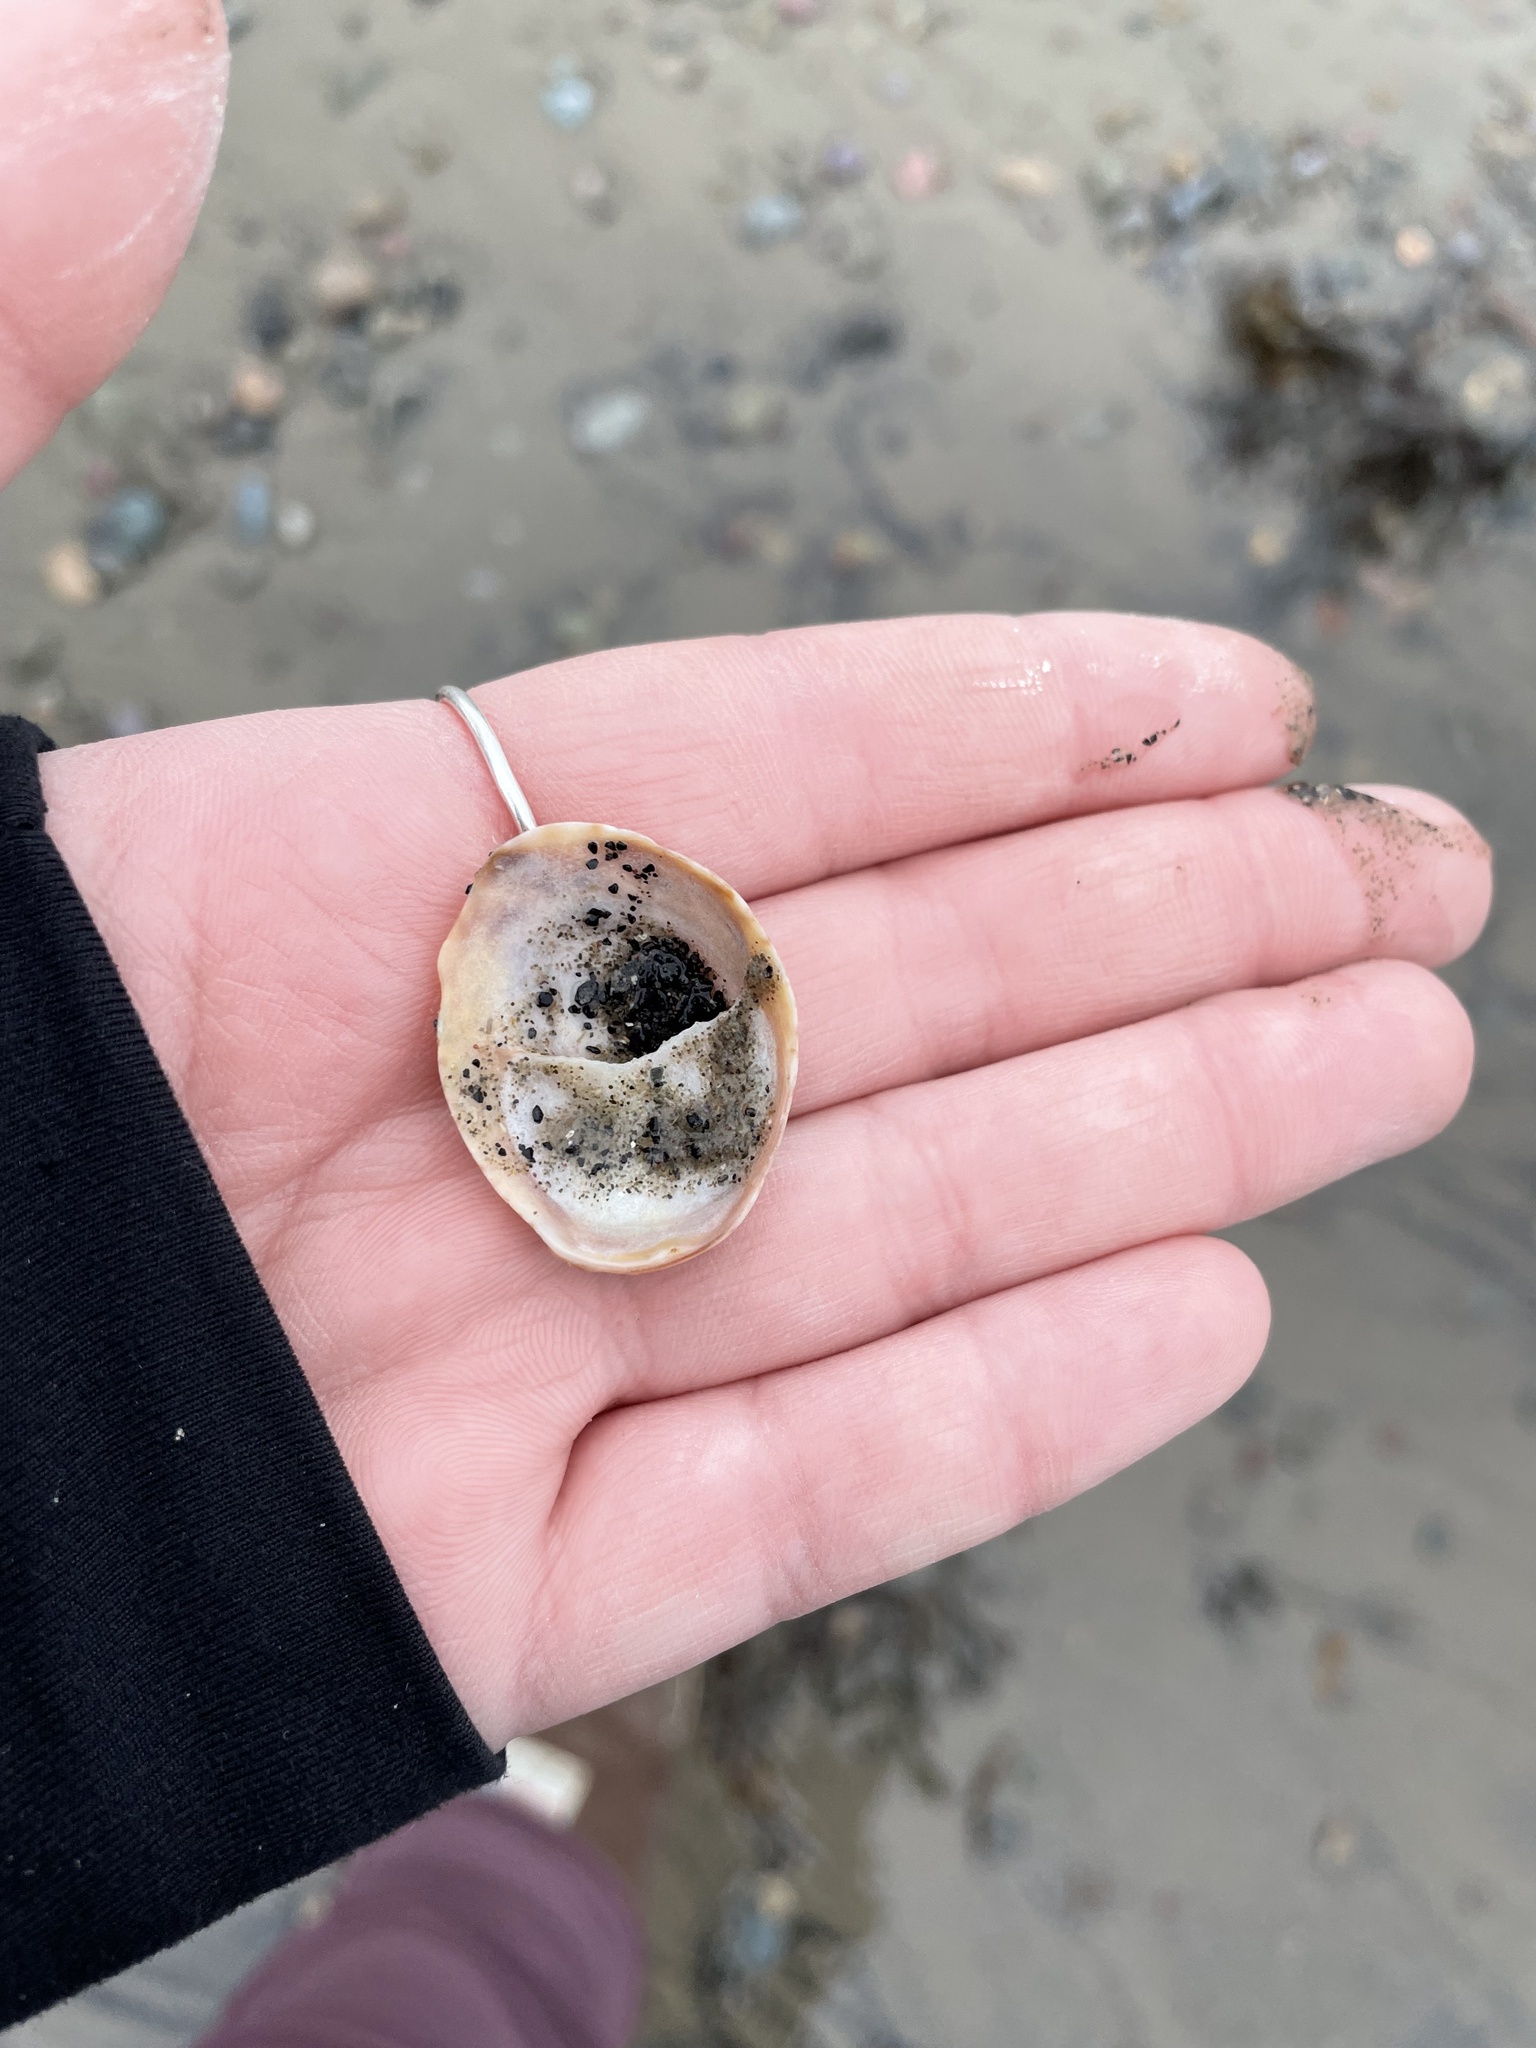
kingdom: Animalia
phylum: Mollusca
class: Gastropoda
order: Littorinimorpha
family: Calyptraeidae
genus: Crepidula
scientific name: Crepidula fornicata
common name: Slipper limpet
